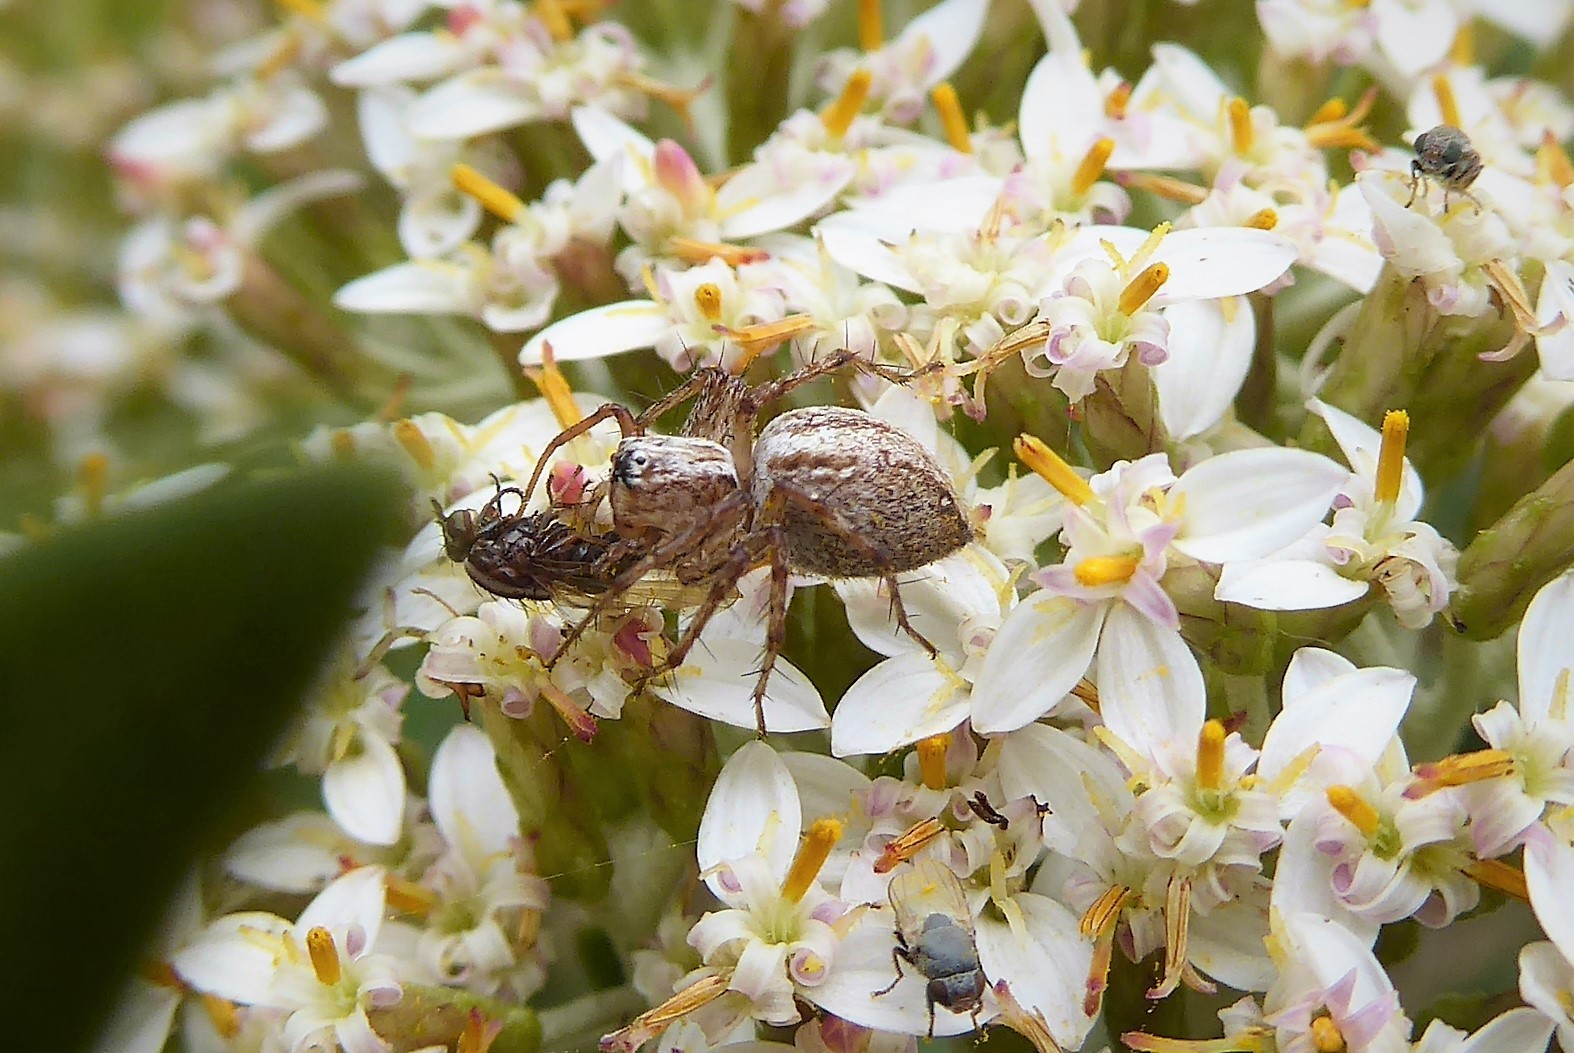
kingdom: Animalia
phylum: Arthropoda
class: Arachnida
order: Araneae
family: Oxyopidae
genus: Oxyopes
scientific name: Oxyopes gracilipes
